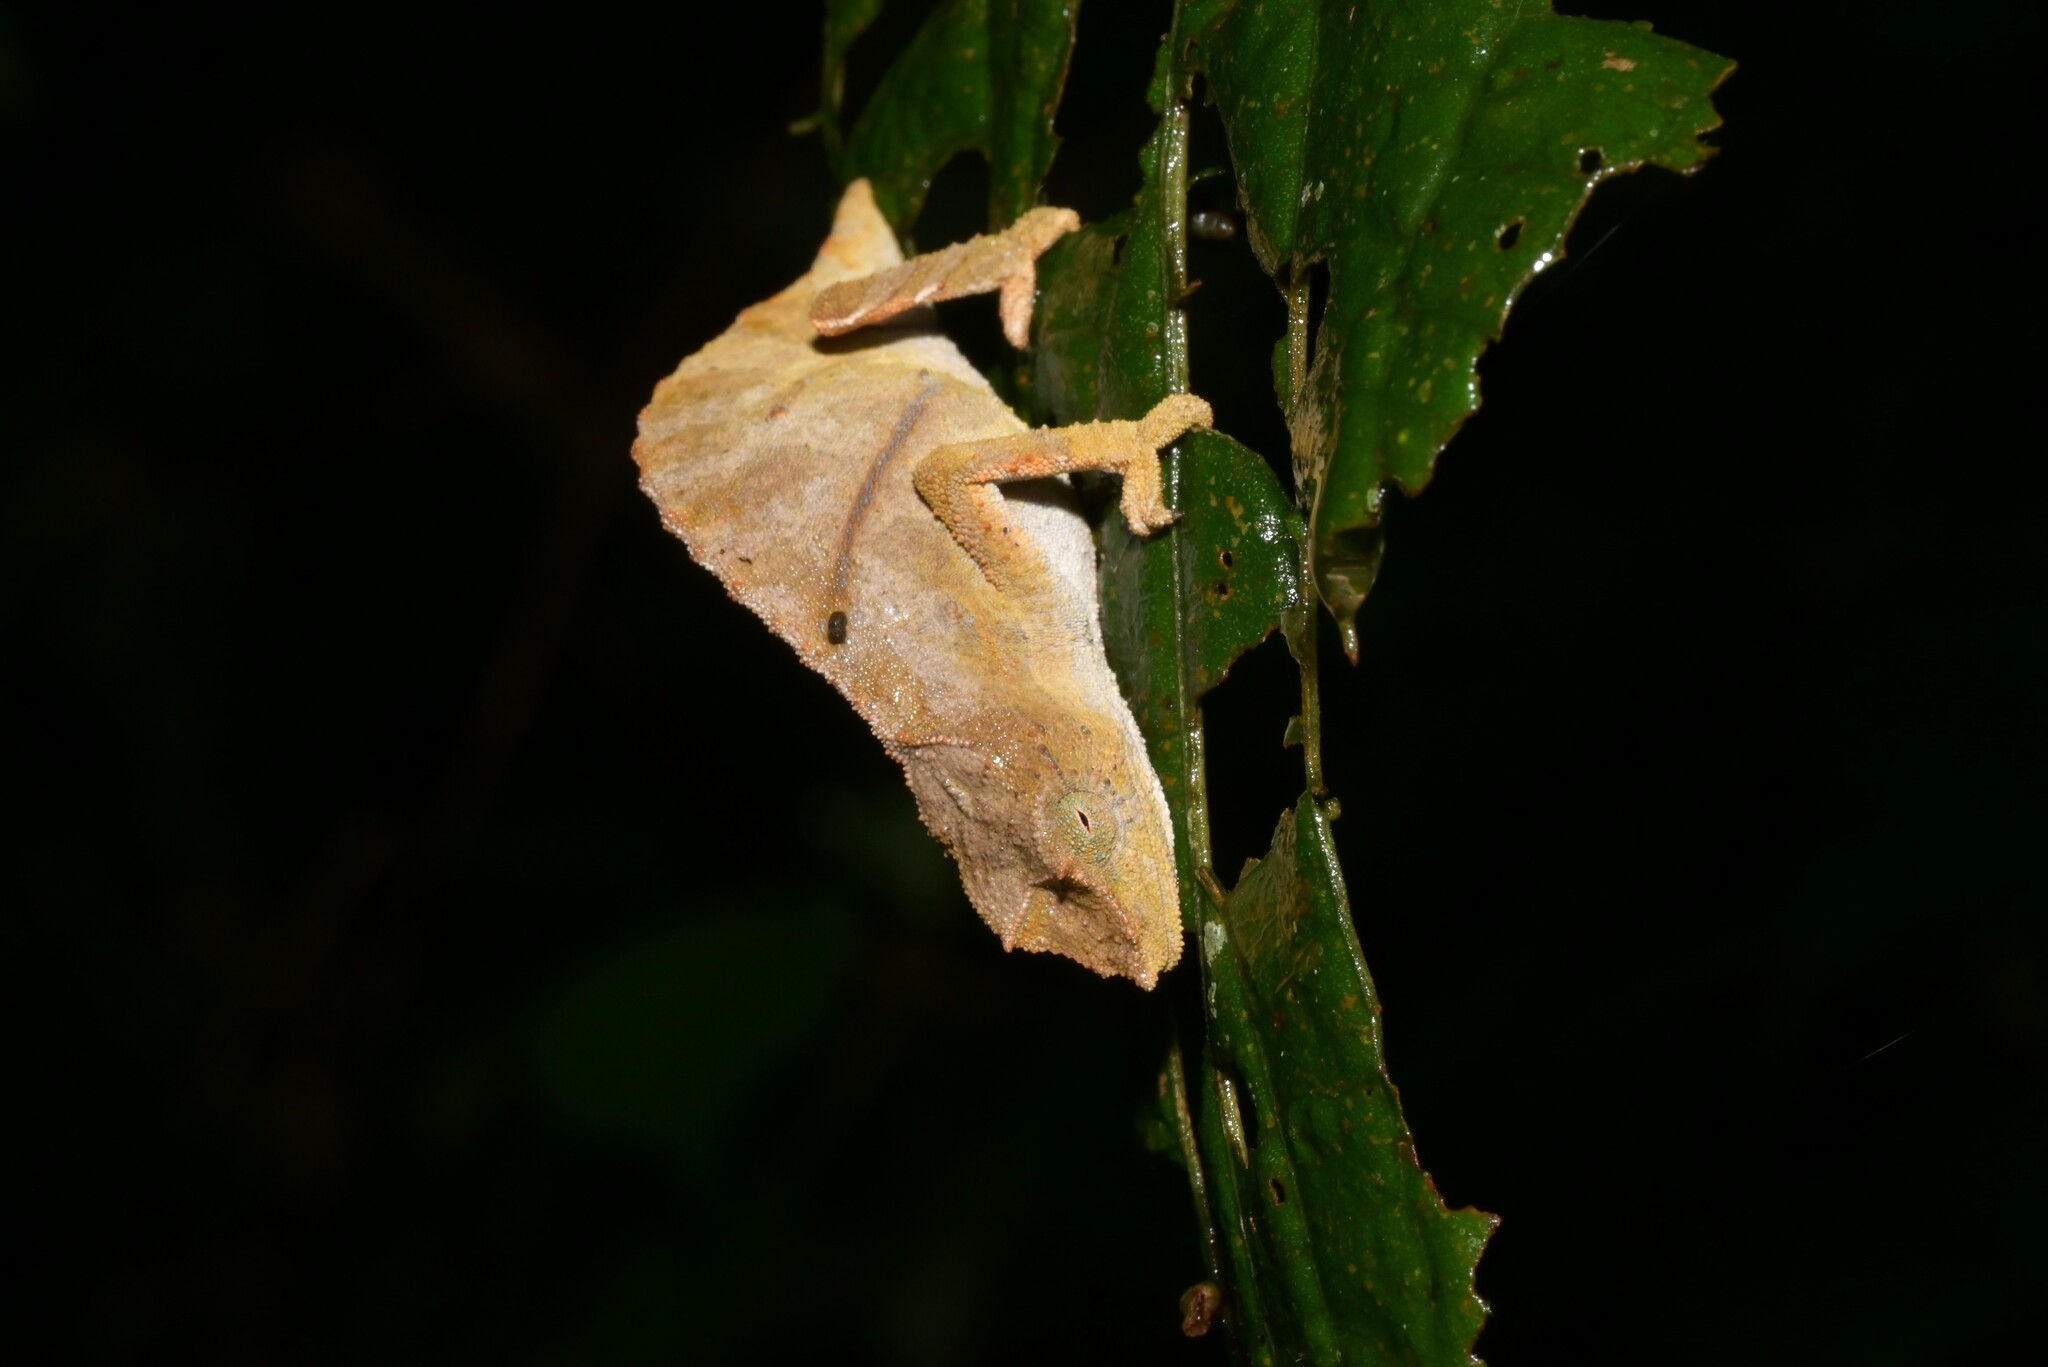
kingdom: Animalia
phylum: Chordata
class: Squamata
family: Chamaeleonidae
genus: Rhampholeon
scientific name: Rhampholeon nchisiensis
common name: South african stumptail chameleon
